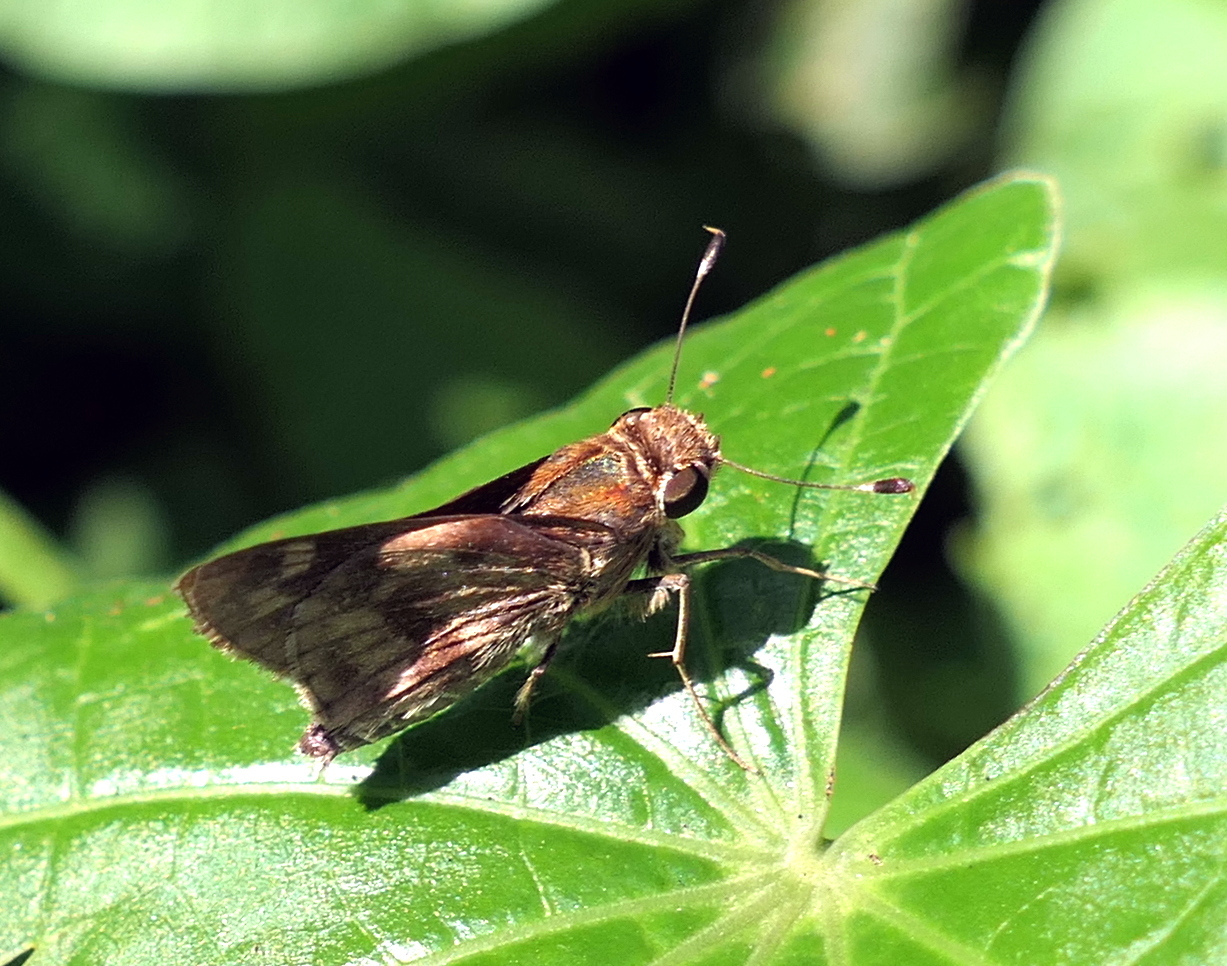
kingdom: Animalia
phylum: Arthropoda
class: Insecta
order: Lepidoptera
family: Hesperiidae
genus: Pompeius
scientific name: Pompeius pompeius
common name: Pompeius skipper
